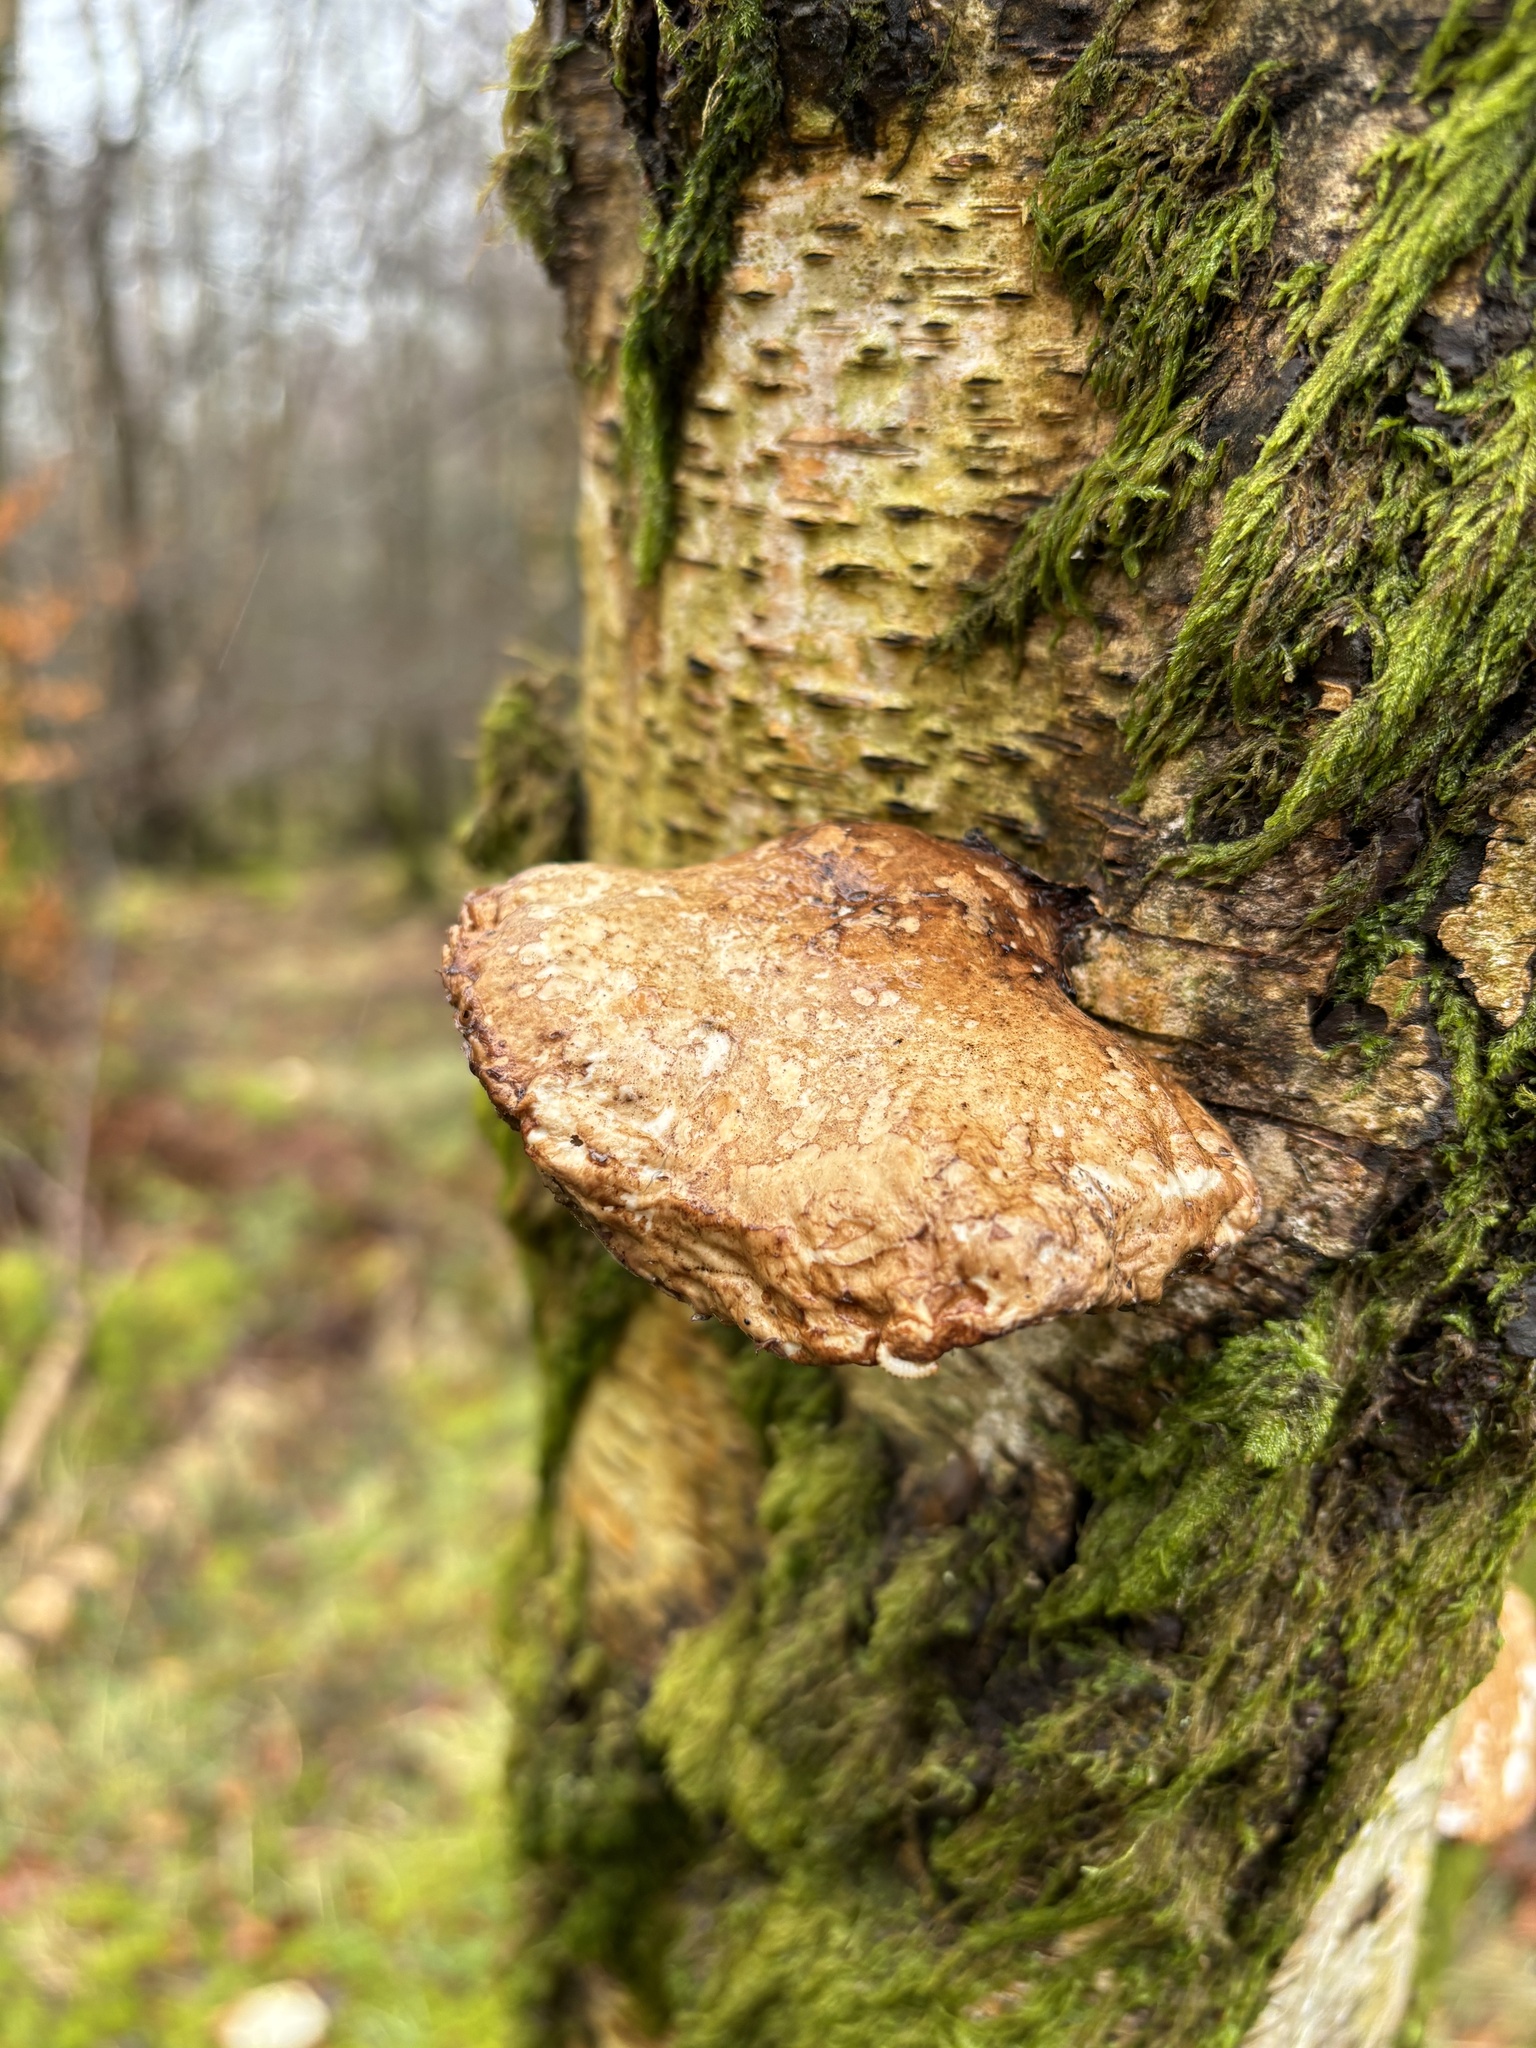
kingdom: Fungi
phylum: Basidiomycota
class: Agaricomycetes
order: Polyporales
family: Fomitopsidaceae
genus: Fomitopsis
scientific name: Fomitopsis betulina
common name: Birch polypore
